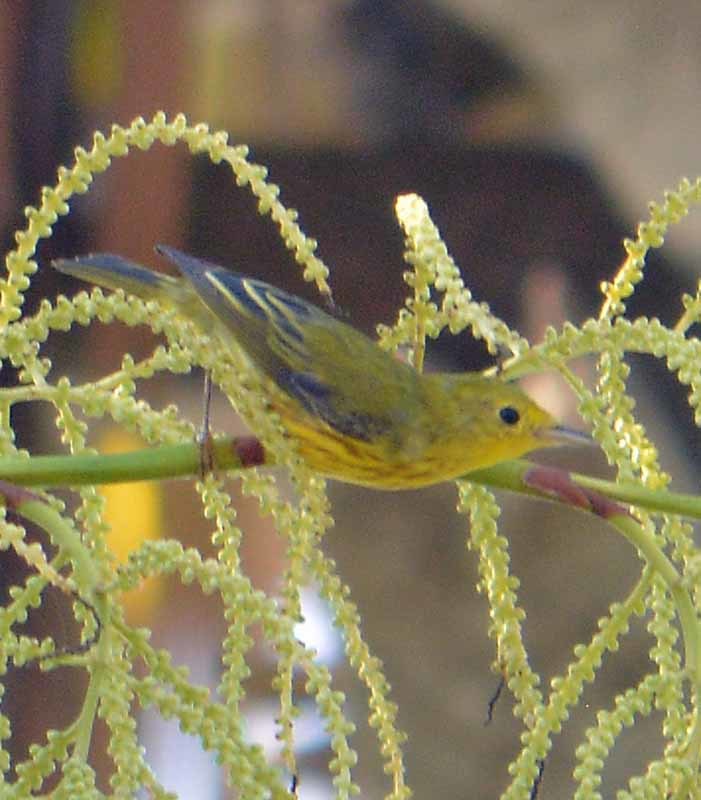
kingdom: Animalia
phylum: Chordata
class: Aves
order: Passeriformes
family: Parulidae
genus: Setophaga
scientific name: Setophaga petechia
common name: Yellow warbler
